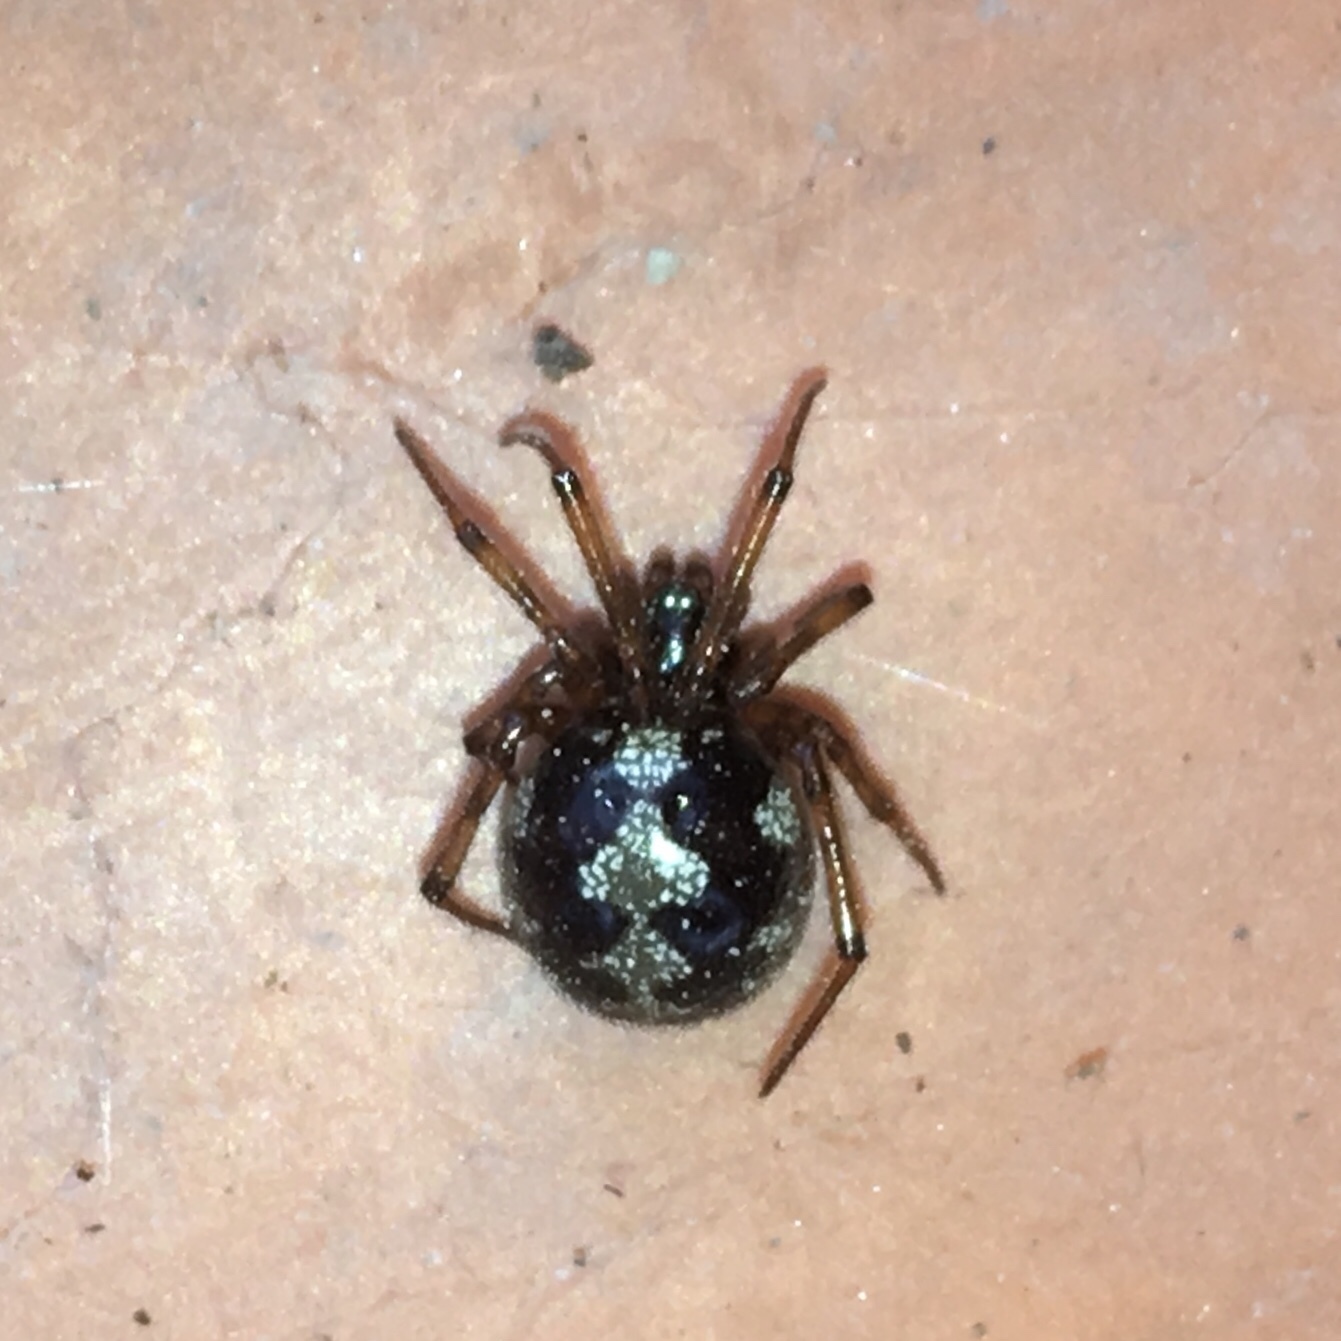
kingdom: Animalia
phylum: Arthropoda
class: Arachnida
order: Araneae
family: Theridiidae
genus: Steatoda
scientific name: Steatoda triangulosa
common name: Triangulate bud spider
